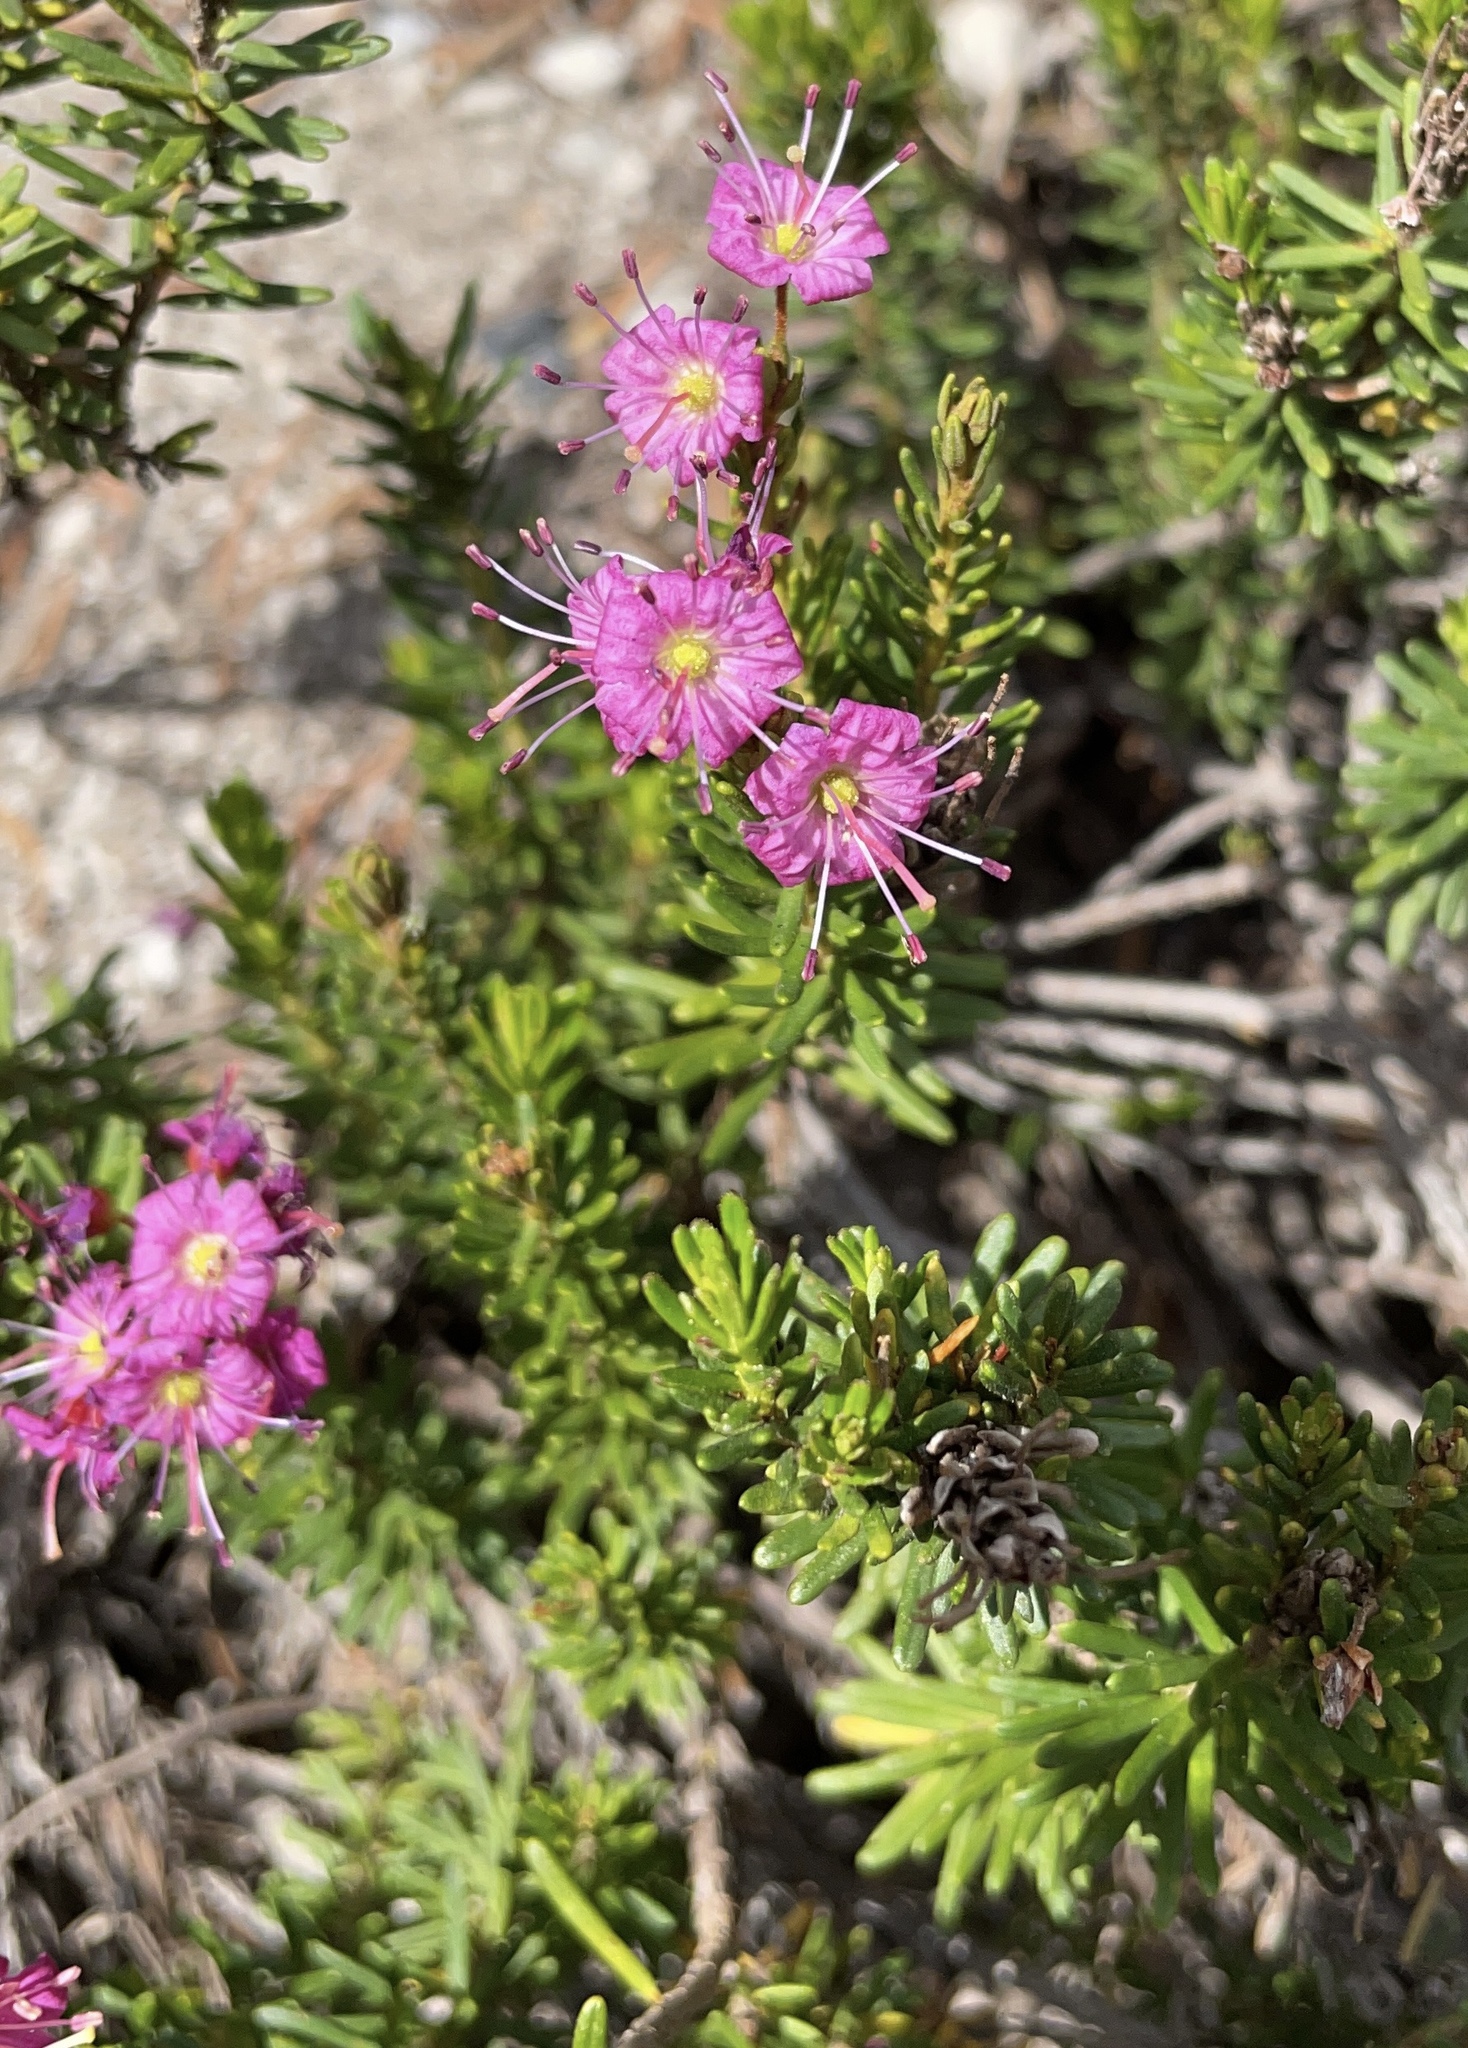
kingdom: Plantae
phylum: Tracheophyta
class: Magnoliopsida
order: Ericales
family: Ericaceae
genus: Phyllodoce
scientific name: Phyllodoce breweri
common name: Brewer's mountain-heather
